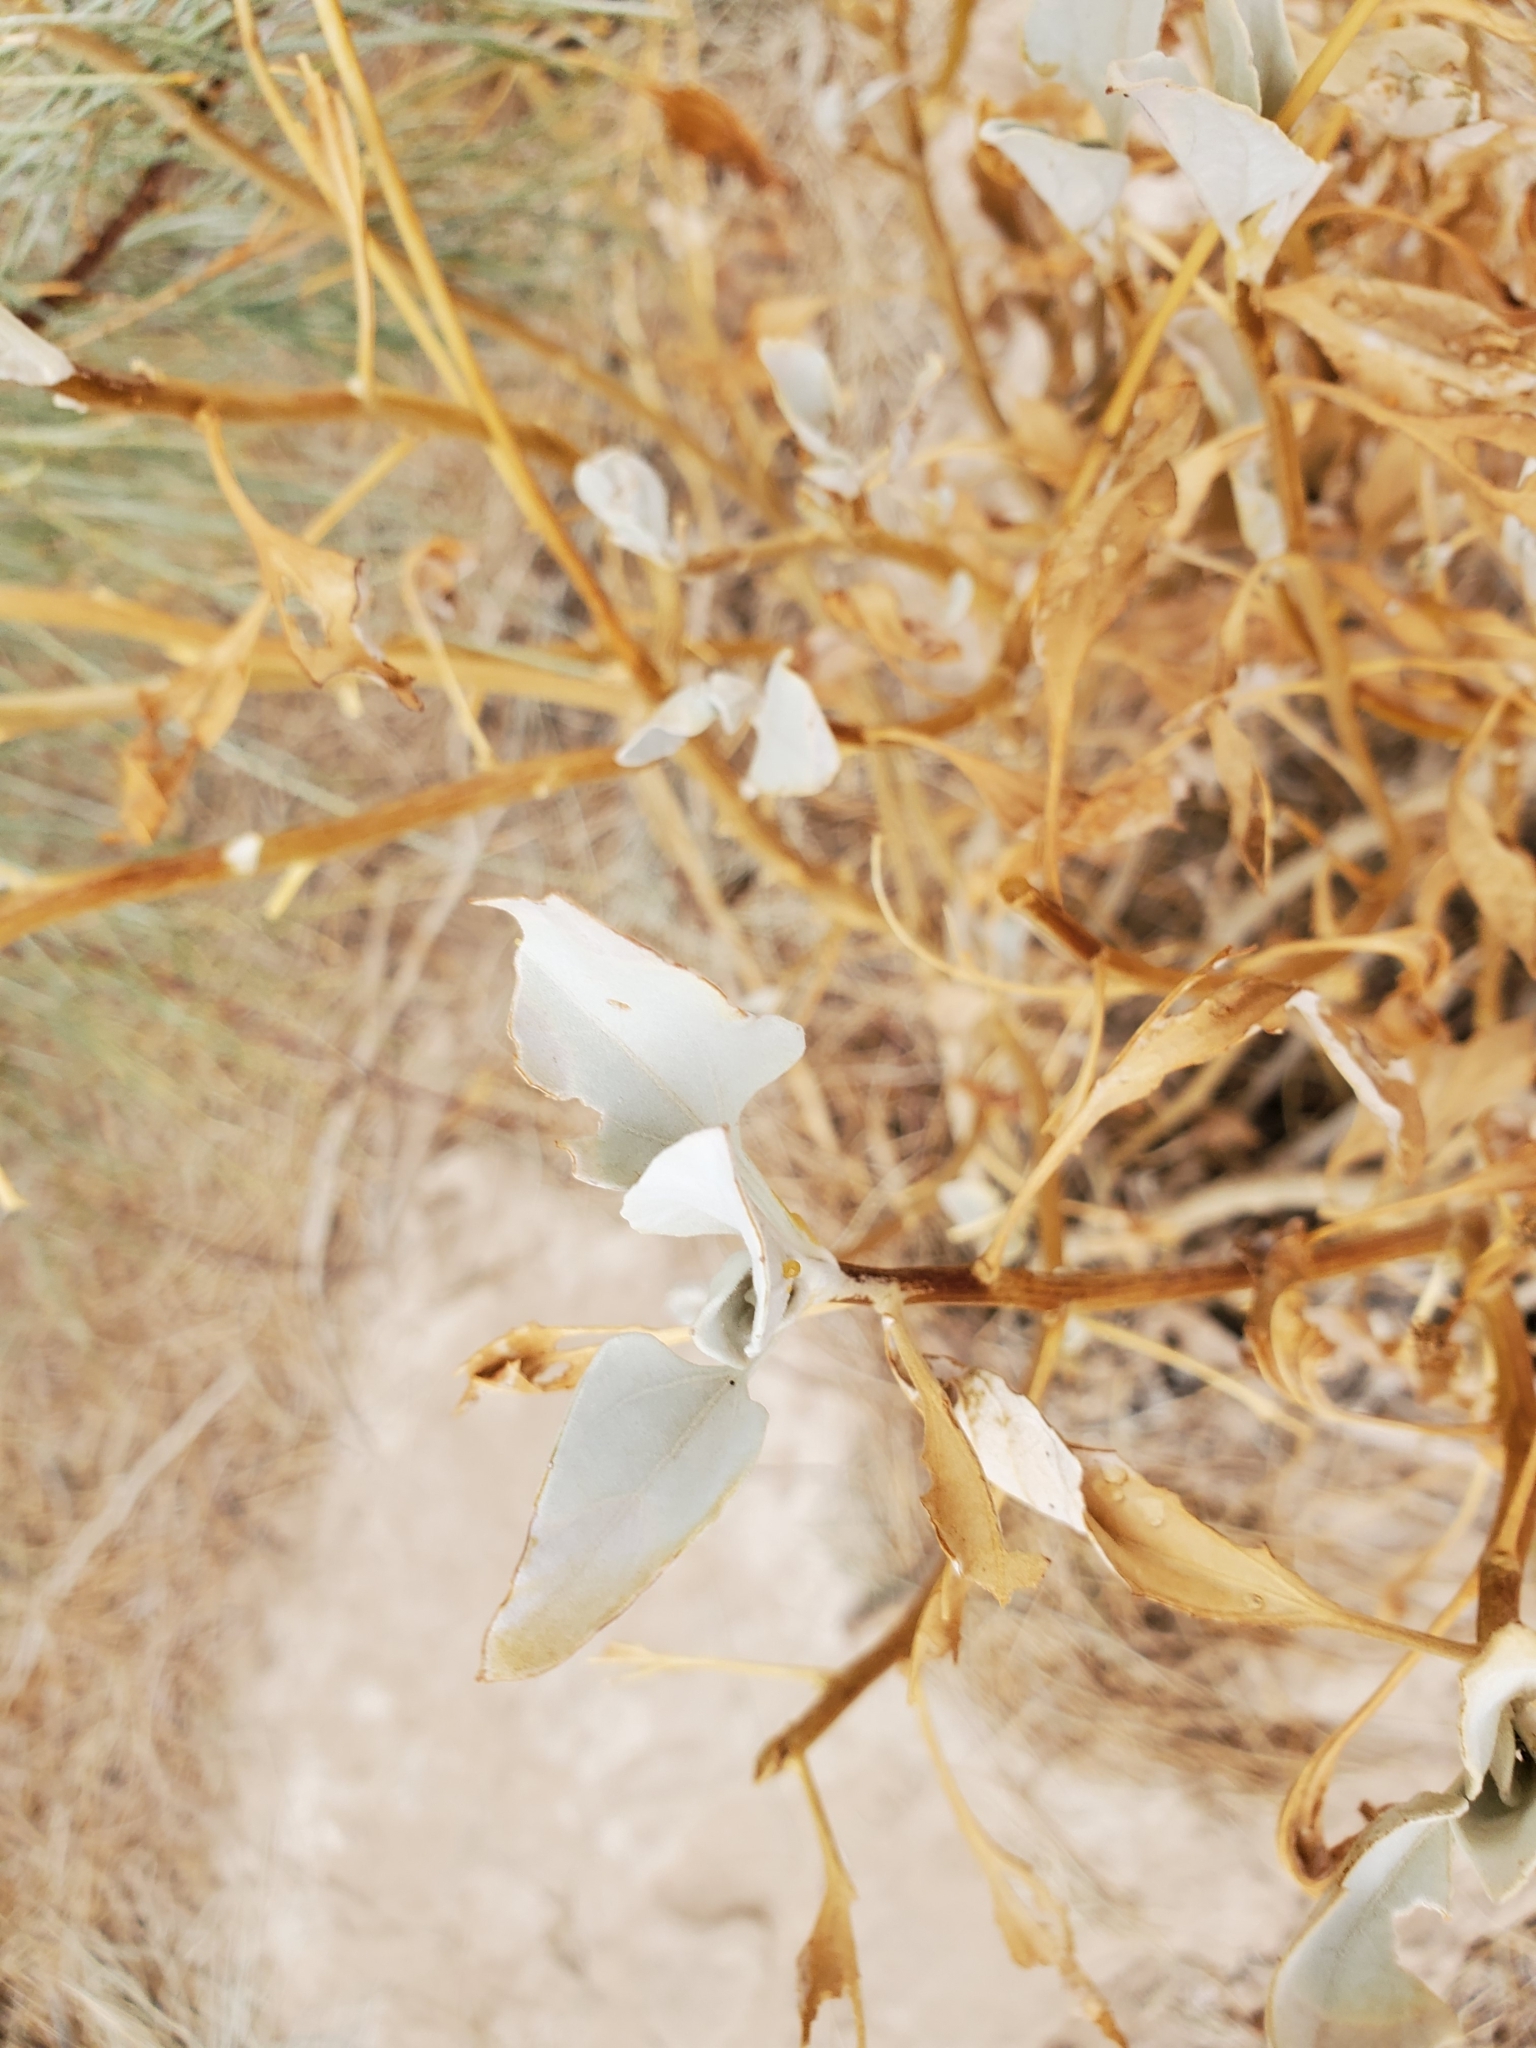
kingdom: Plantae
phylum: Tracheophyta
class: Magnoliopsida
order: Asterales
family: Asteraceae
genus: Encelia
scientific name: Encelia farinosa
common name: Brittlebush
